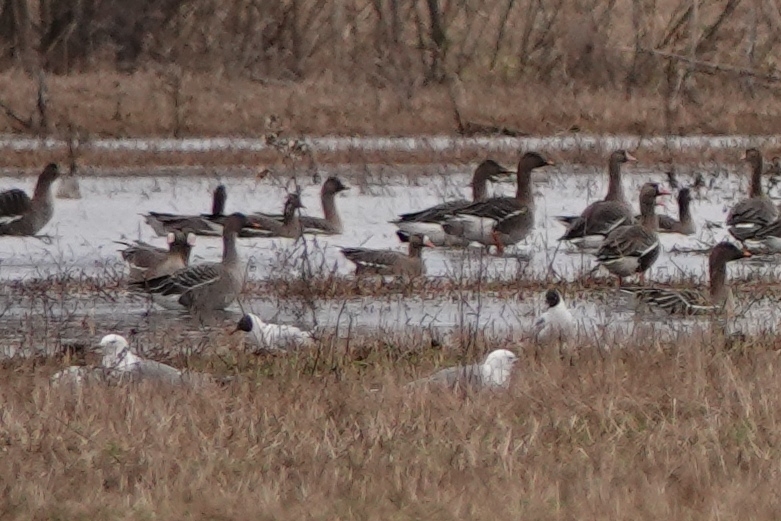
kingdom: Animalia
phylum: Chordata
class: Aves
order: Anseriformes
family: Anatidae
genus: Anser
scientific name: Anser albifrons
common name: Greater white-fronted goose
